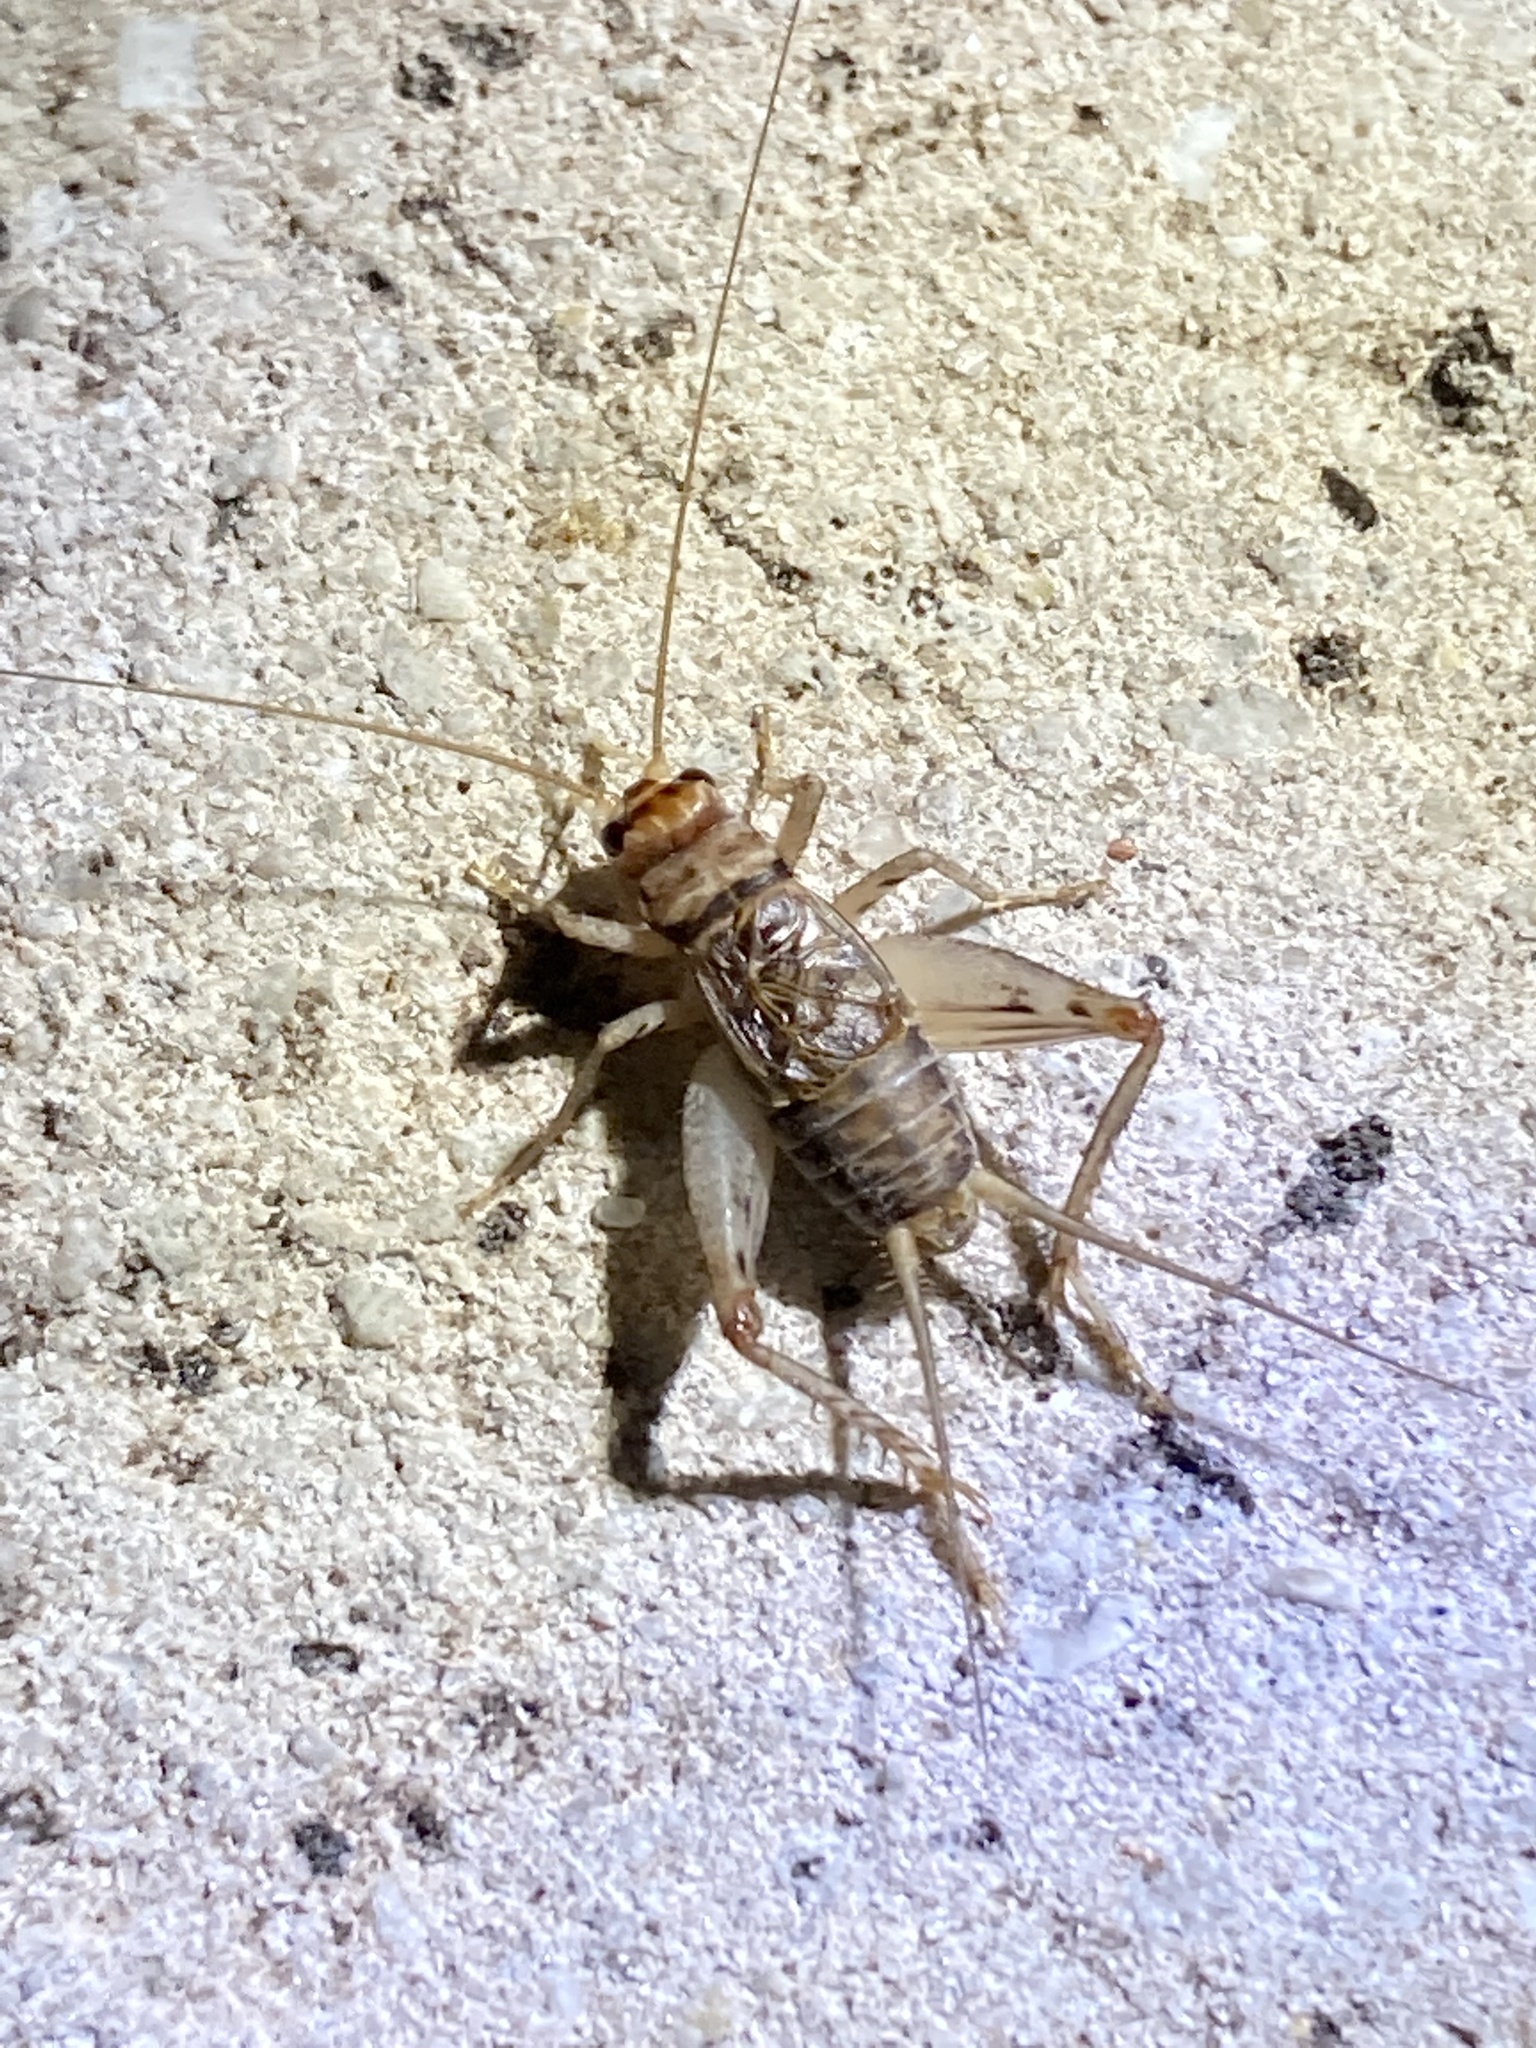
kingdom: Animalia
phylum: Arthropoda
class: Insecta
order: Orthoptera
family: Gryllidae
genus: Gryllodes
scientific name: Gryllodes sigillatus
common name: Tropical house cricket
